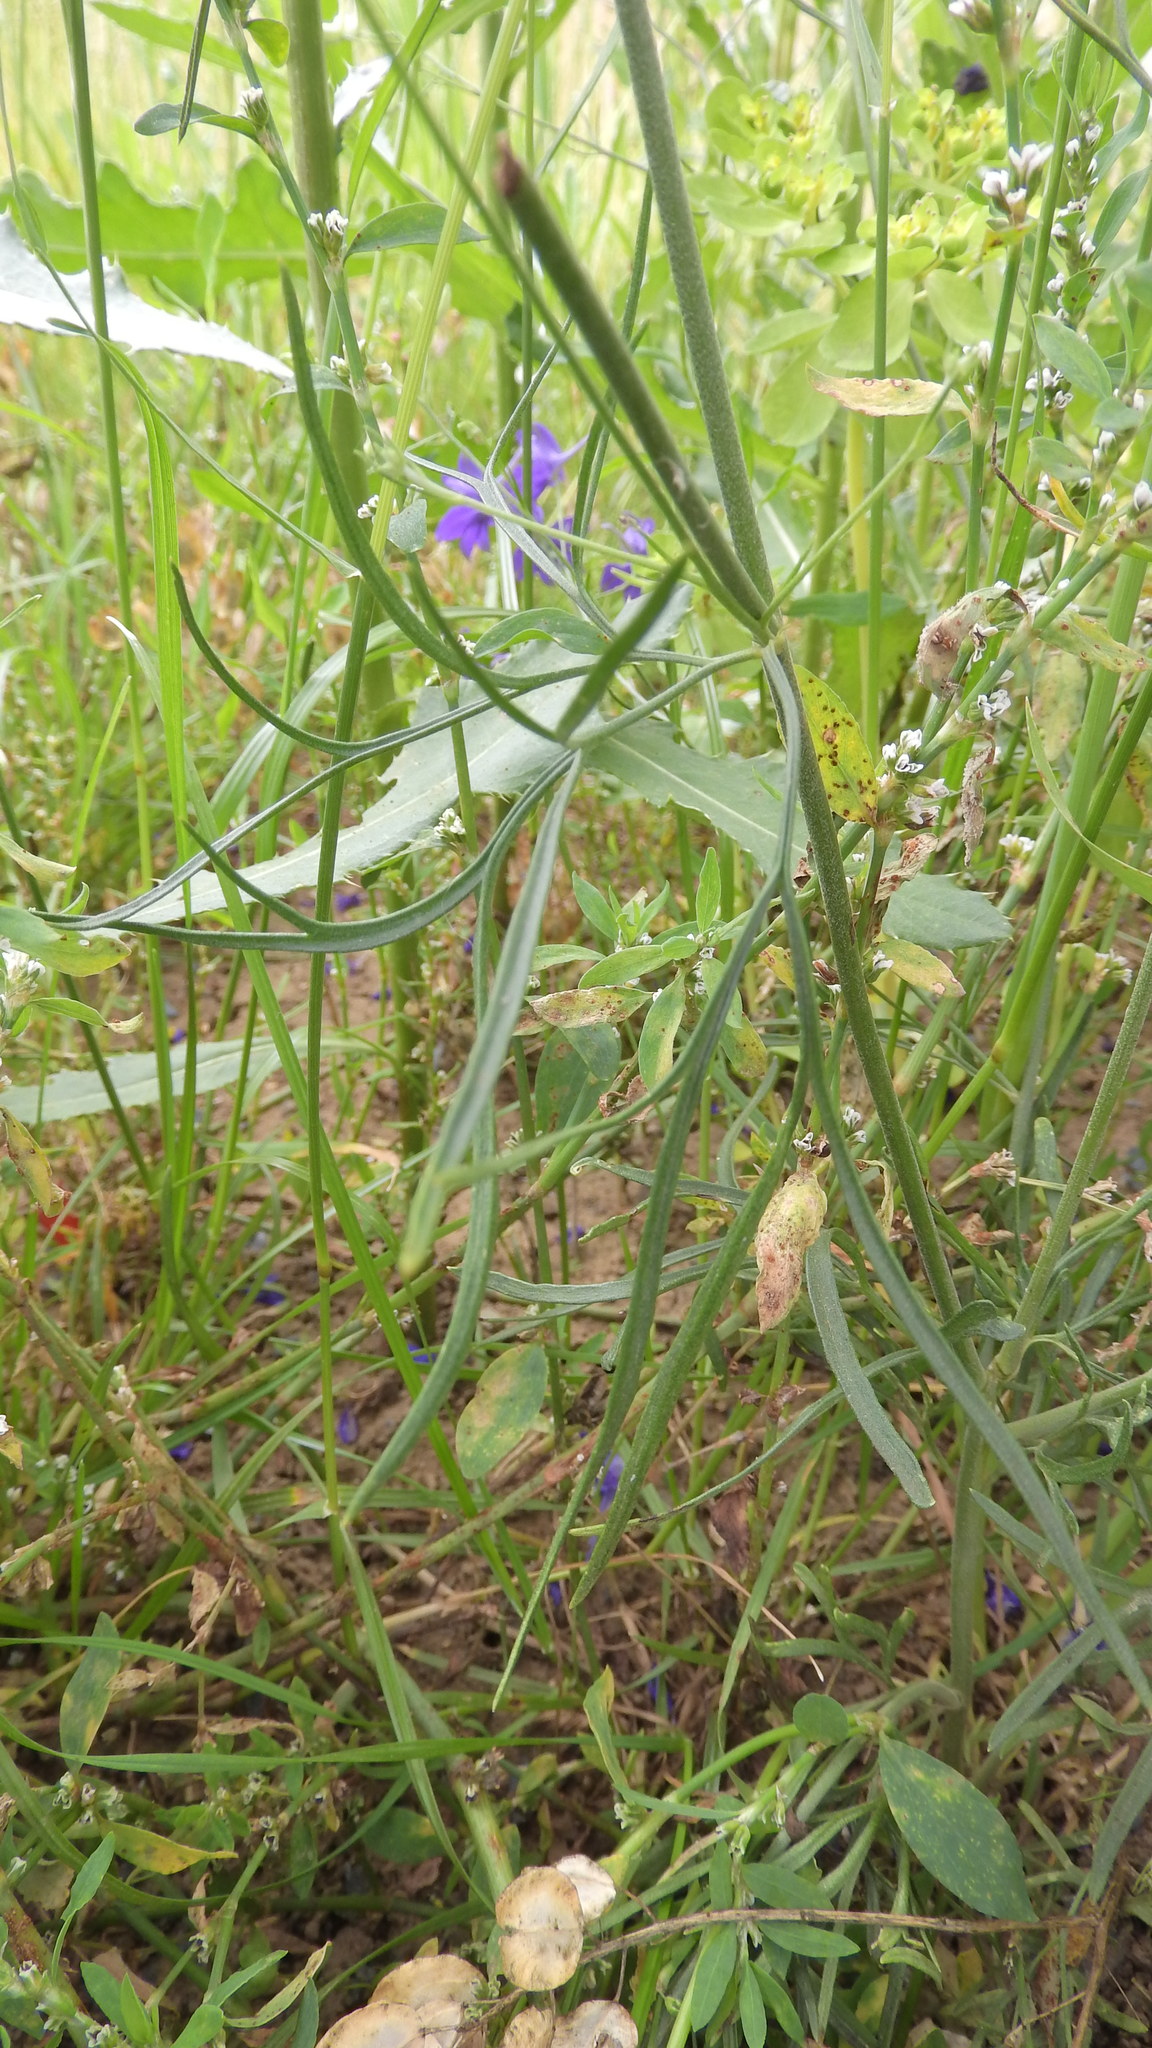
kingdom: Plantae
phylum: Tracheophyta
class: Magnoliopsida
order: Ranunculales
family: Ranunculaceae
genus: Delphinium
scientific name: Delphinium consolida
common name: Branching larkspur
